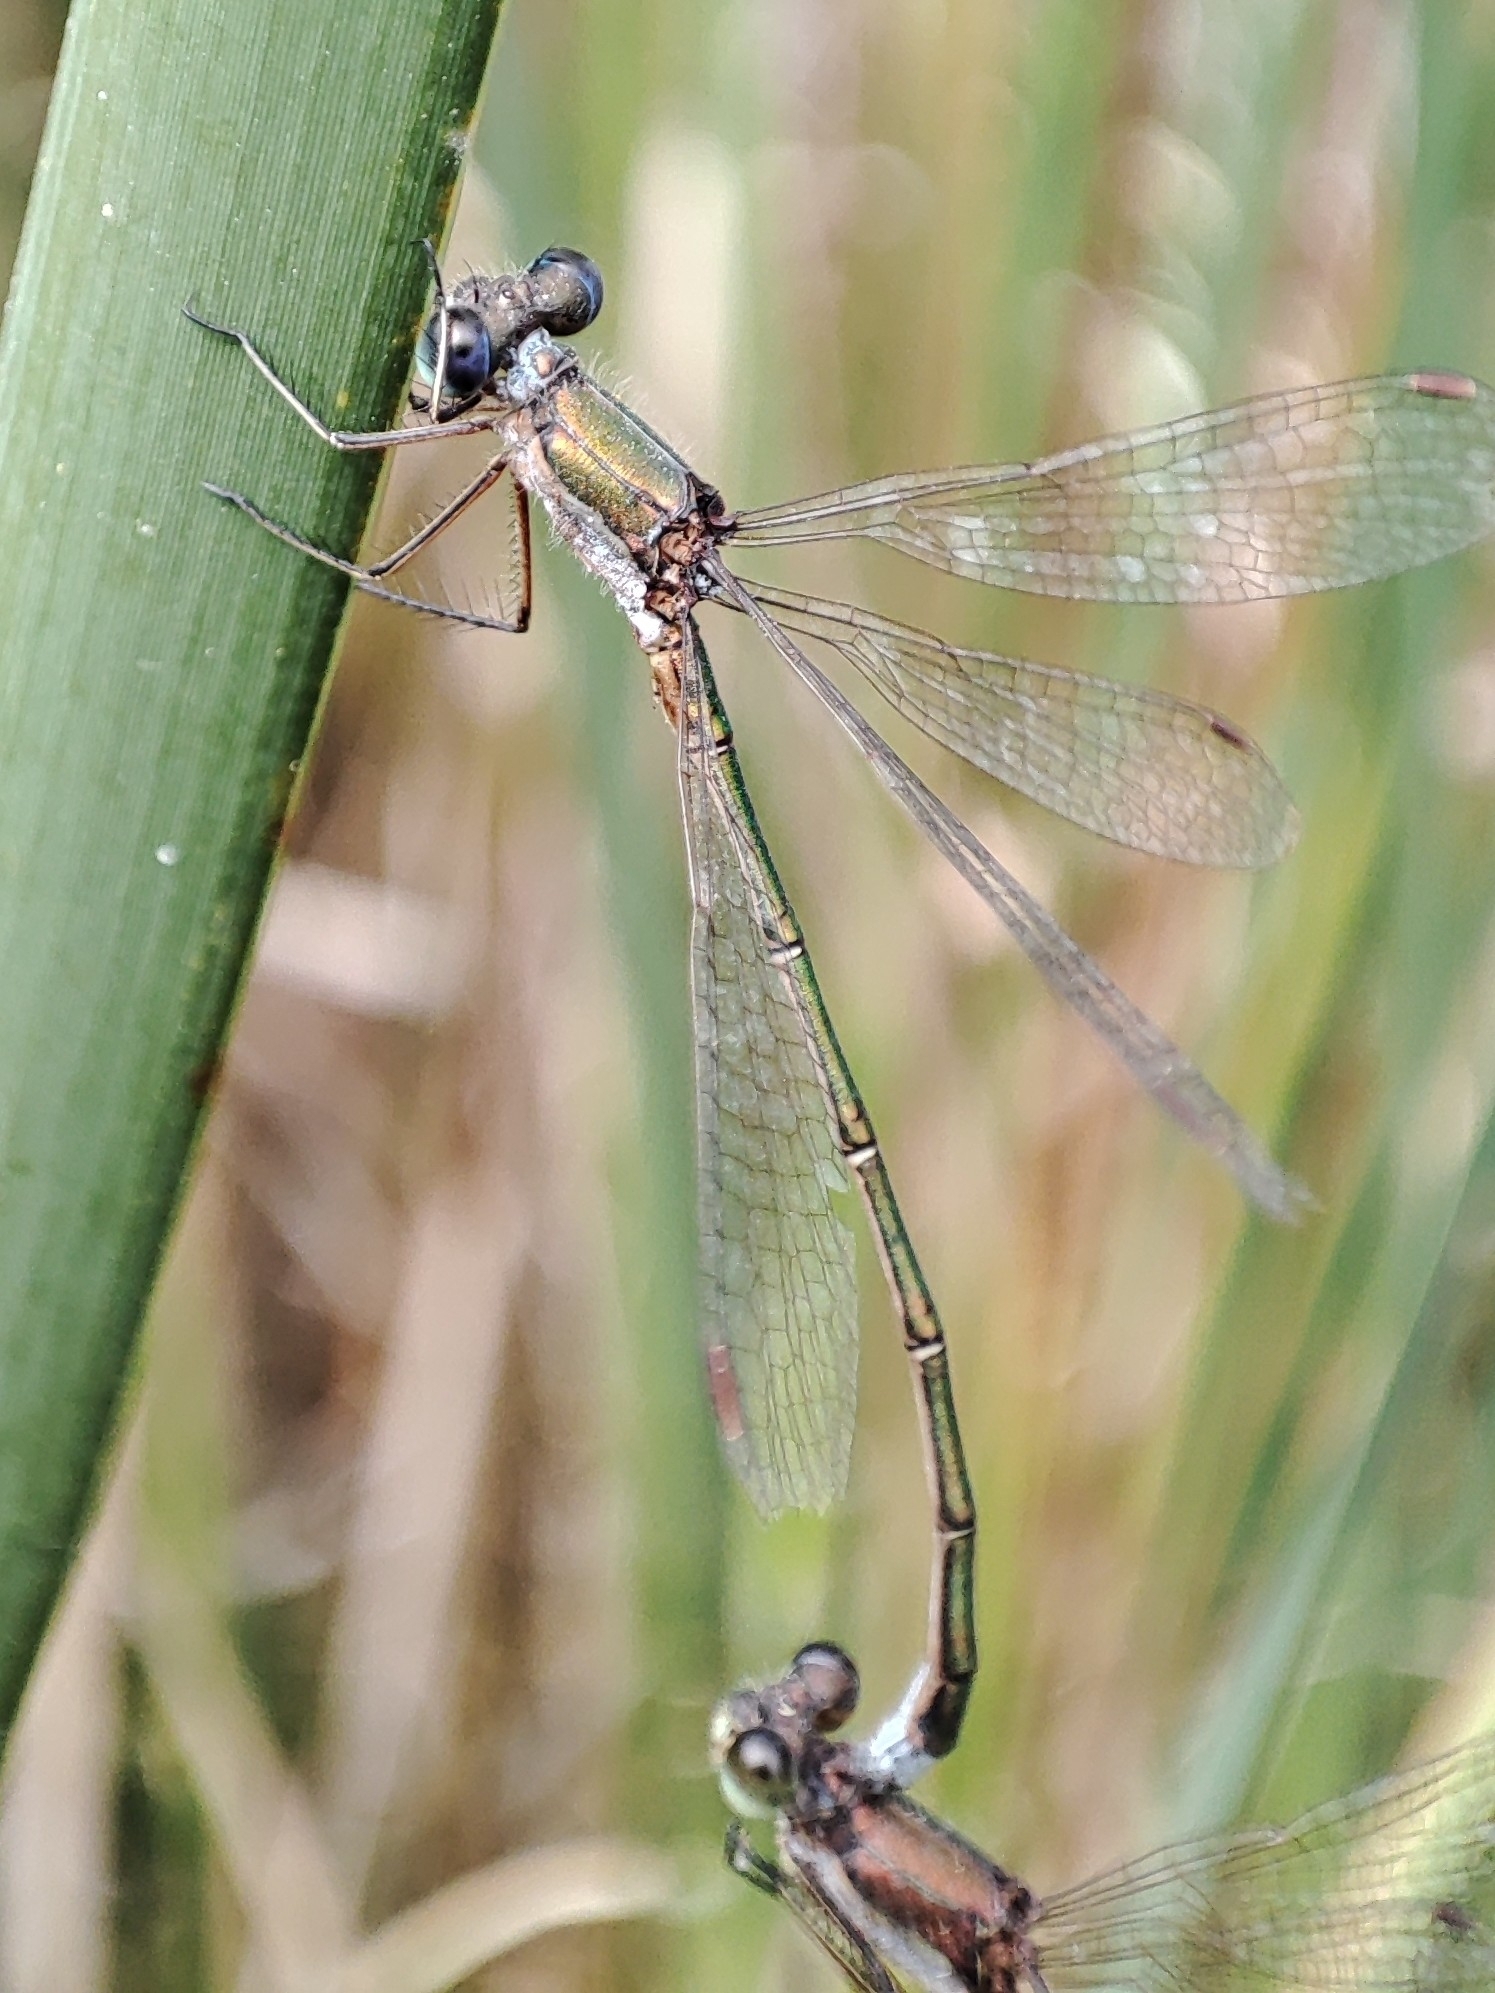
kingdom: Animalia
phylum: Arthropoda
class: Insecta
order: Odonata
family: Lestidae
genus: Lestes
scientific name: Lestes virens
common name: Small emerald spreadwing
